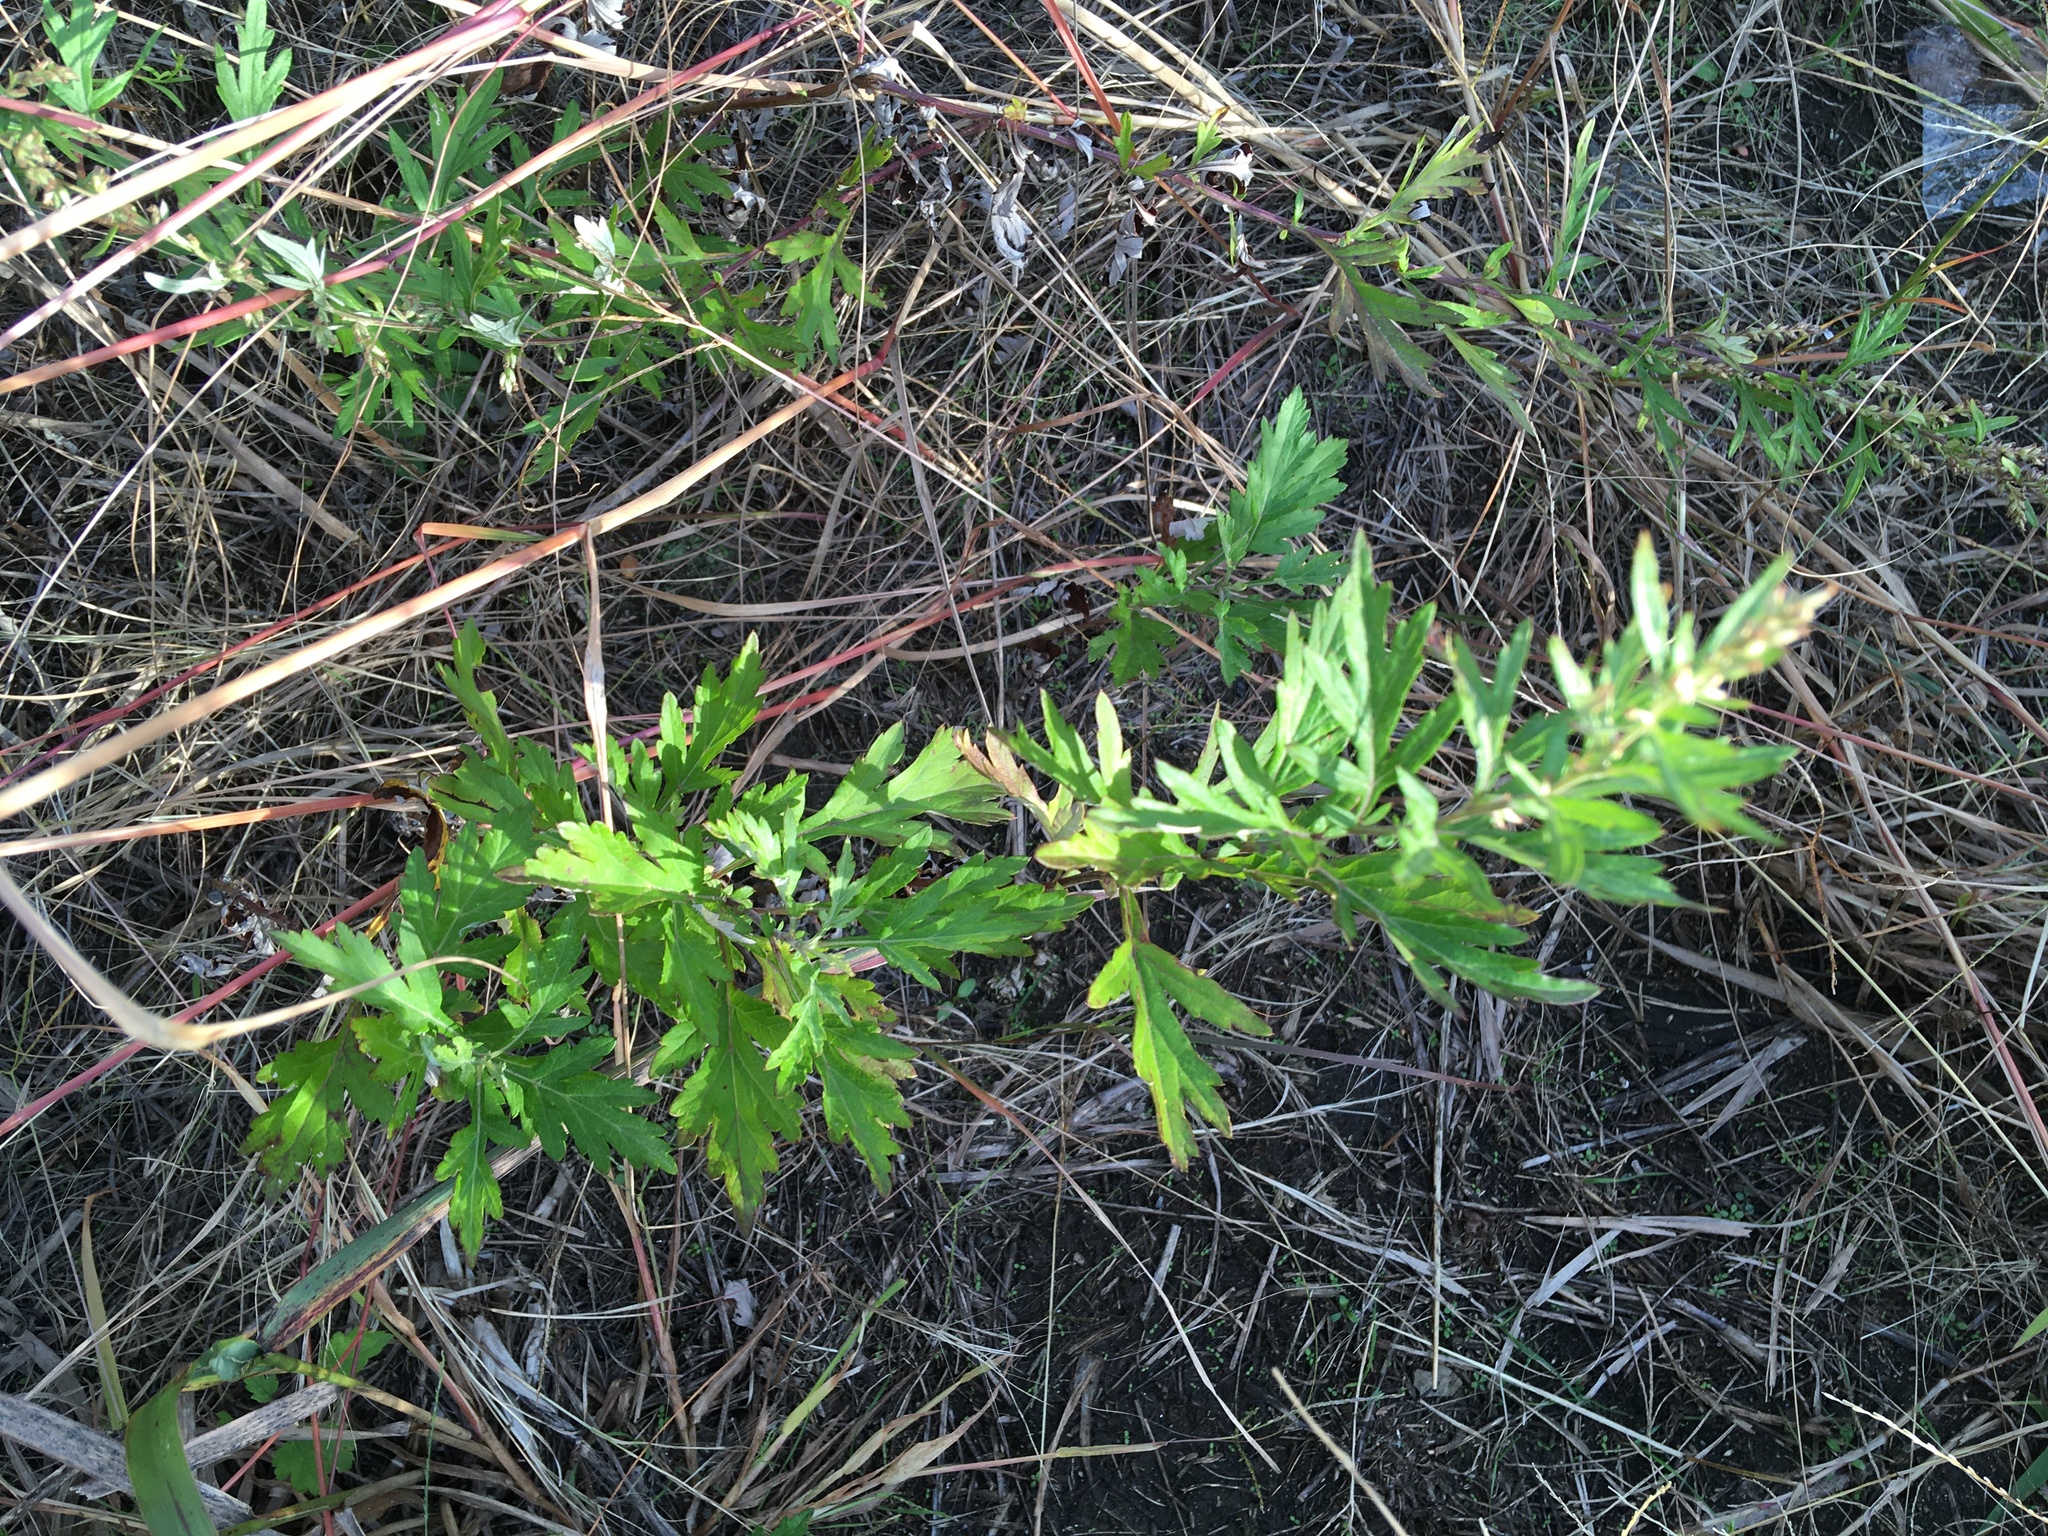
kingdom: Plantae
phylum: Tracheophyta
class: Magnoliopsida
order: Asterales
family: Asteraceae
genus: Artemisia
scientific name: Artemisia vulgaris
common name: Mugwort
